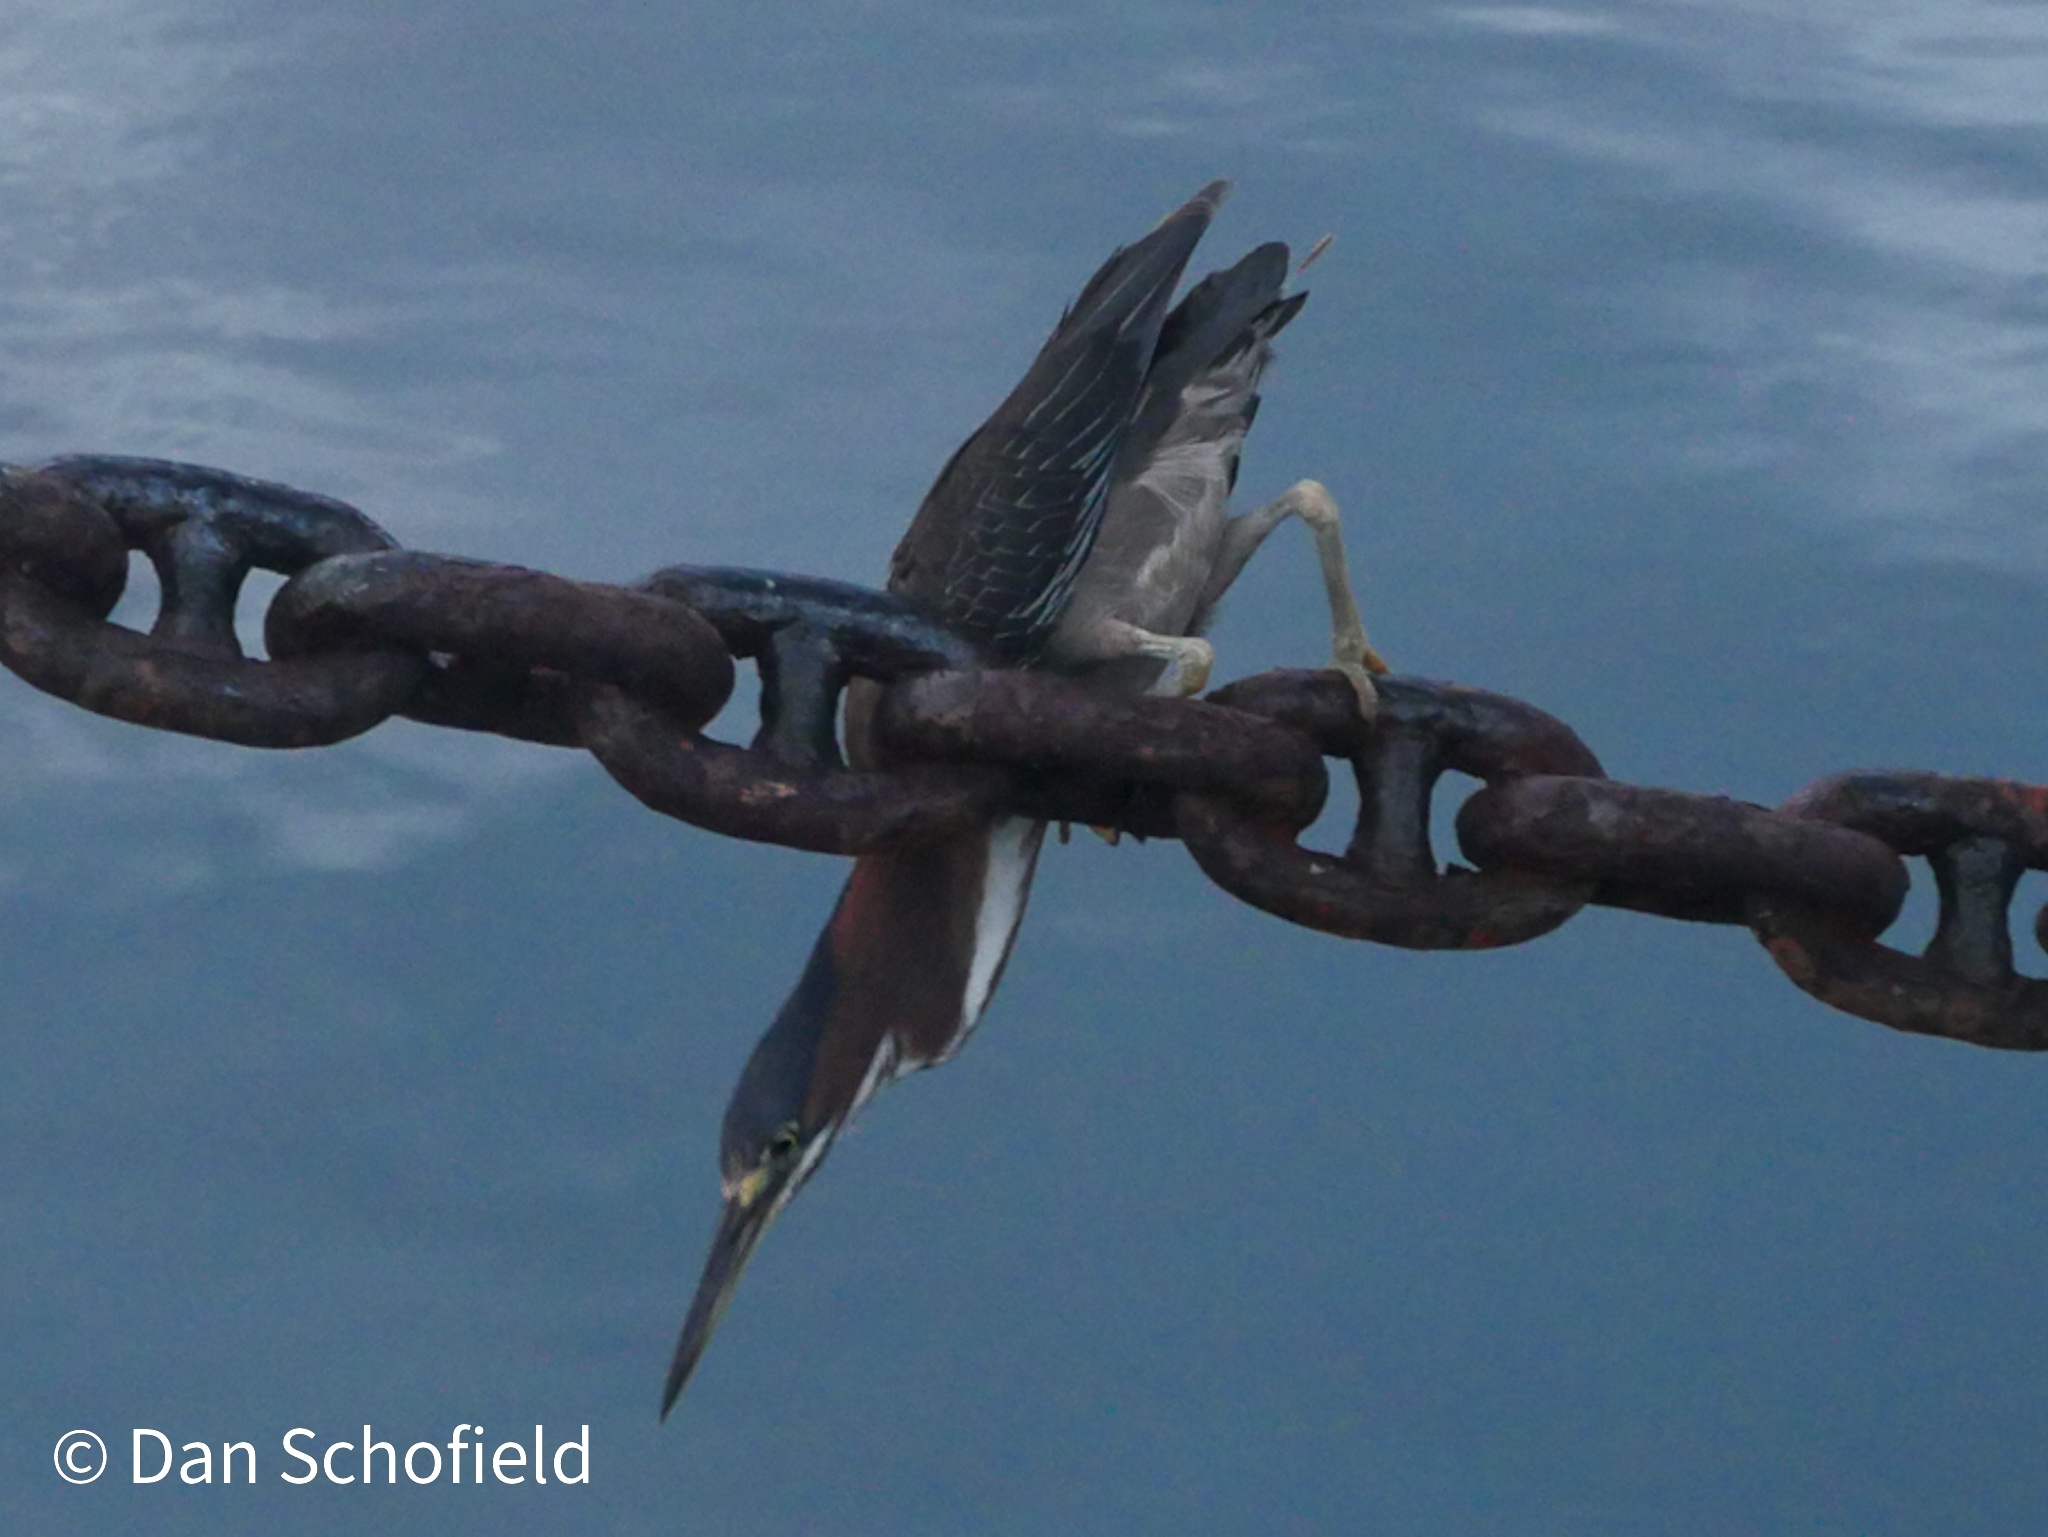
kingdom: Animalia
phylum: Chordata
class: Aves
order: Pelecaniformes
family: Ardeidae
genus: Butorides
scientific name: Butorides virescens
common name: Green heron
